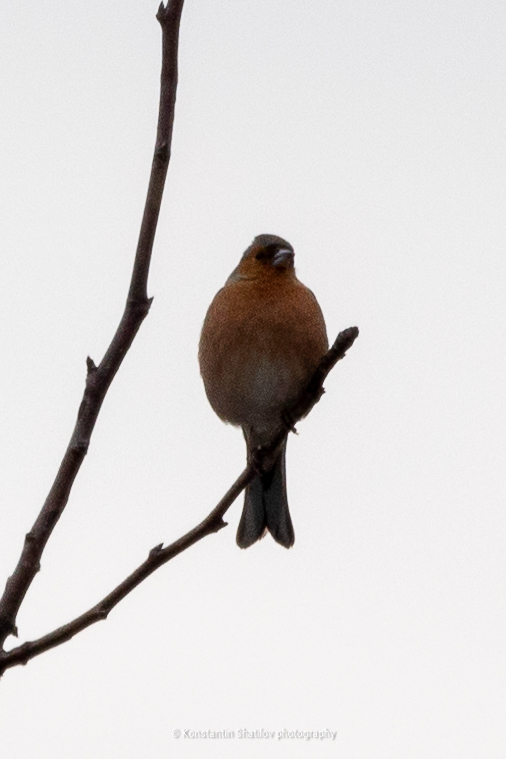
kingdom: Animalia
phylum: Chordata
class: Aves
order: Passeriformes
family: Fringillidae
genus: Fringilla
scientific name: Fringilla coelebs
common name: Common chaffinch
